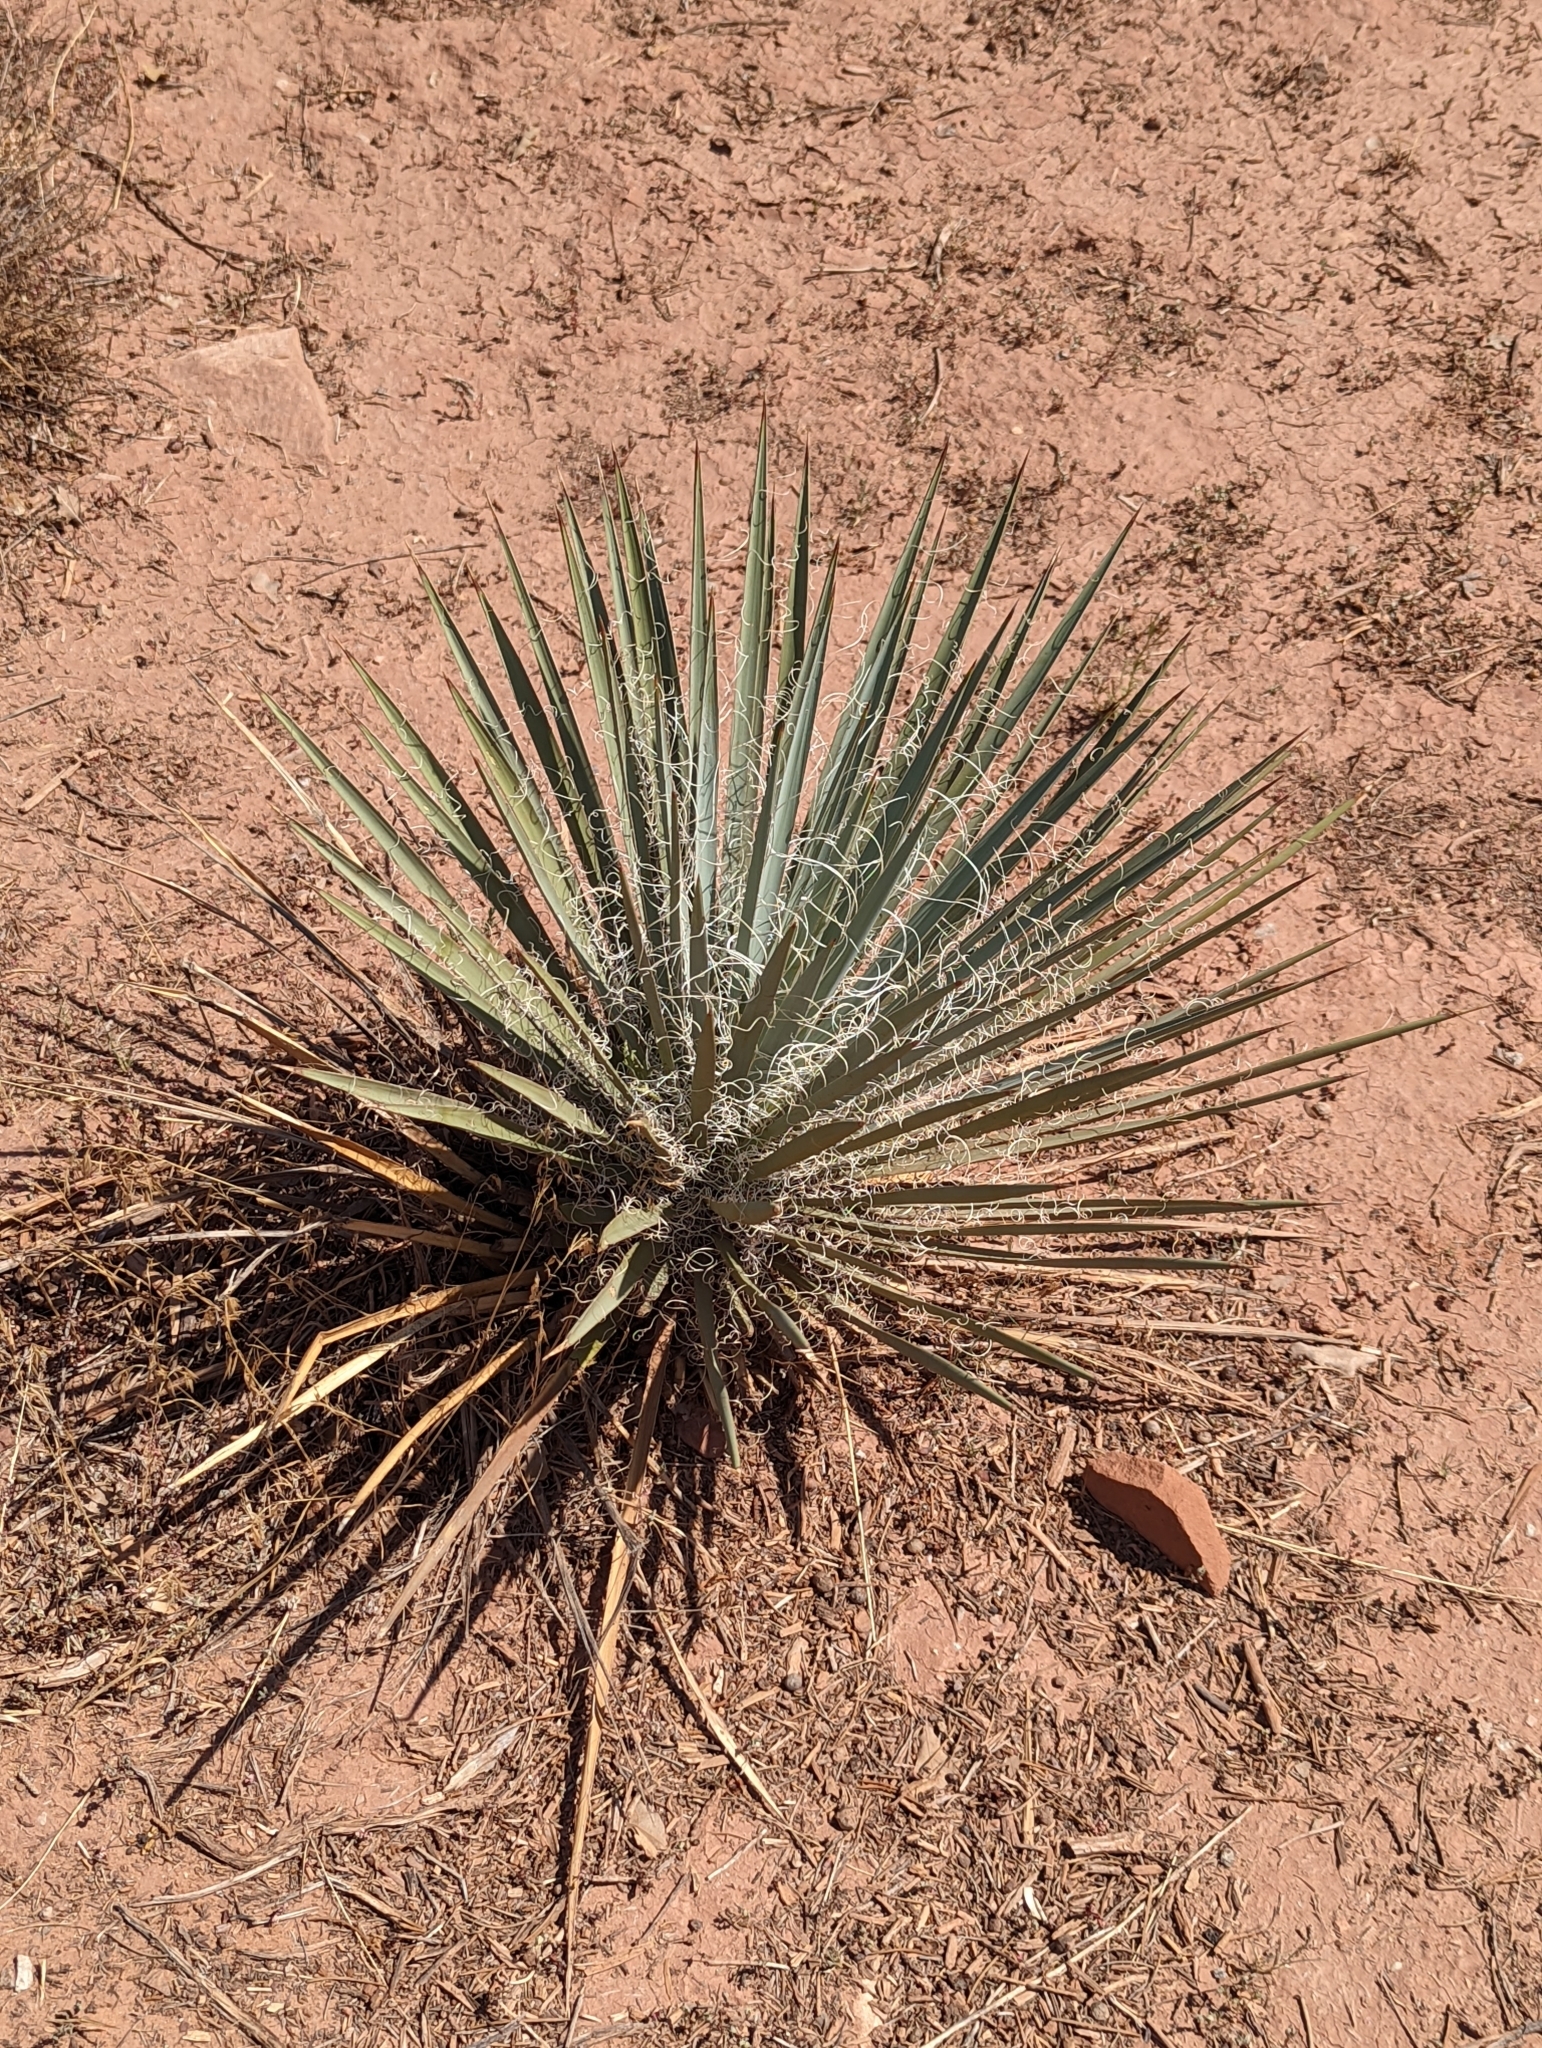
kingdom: Plantae
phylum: Tracheophyta
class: Liliopsida
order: Asparagales
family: Asparagaceae
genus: Yucca
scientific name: Yucca harrimaniae
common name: Harriman's yucca
